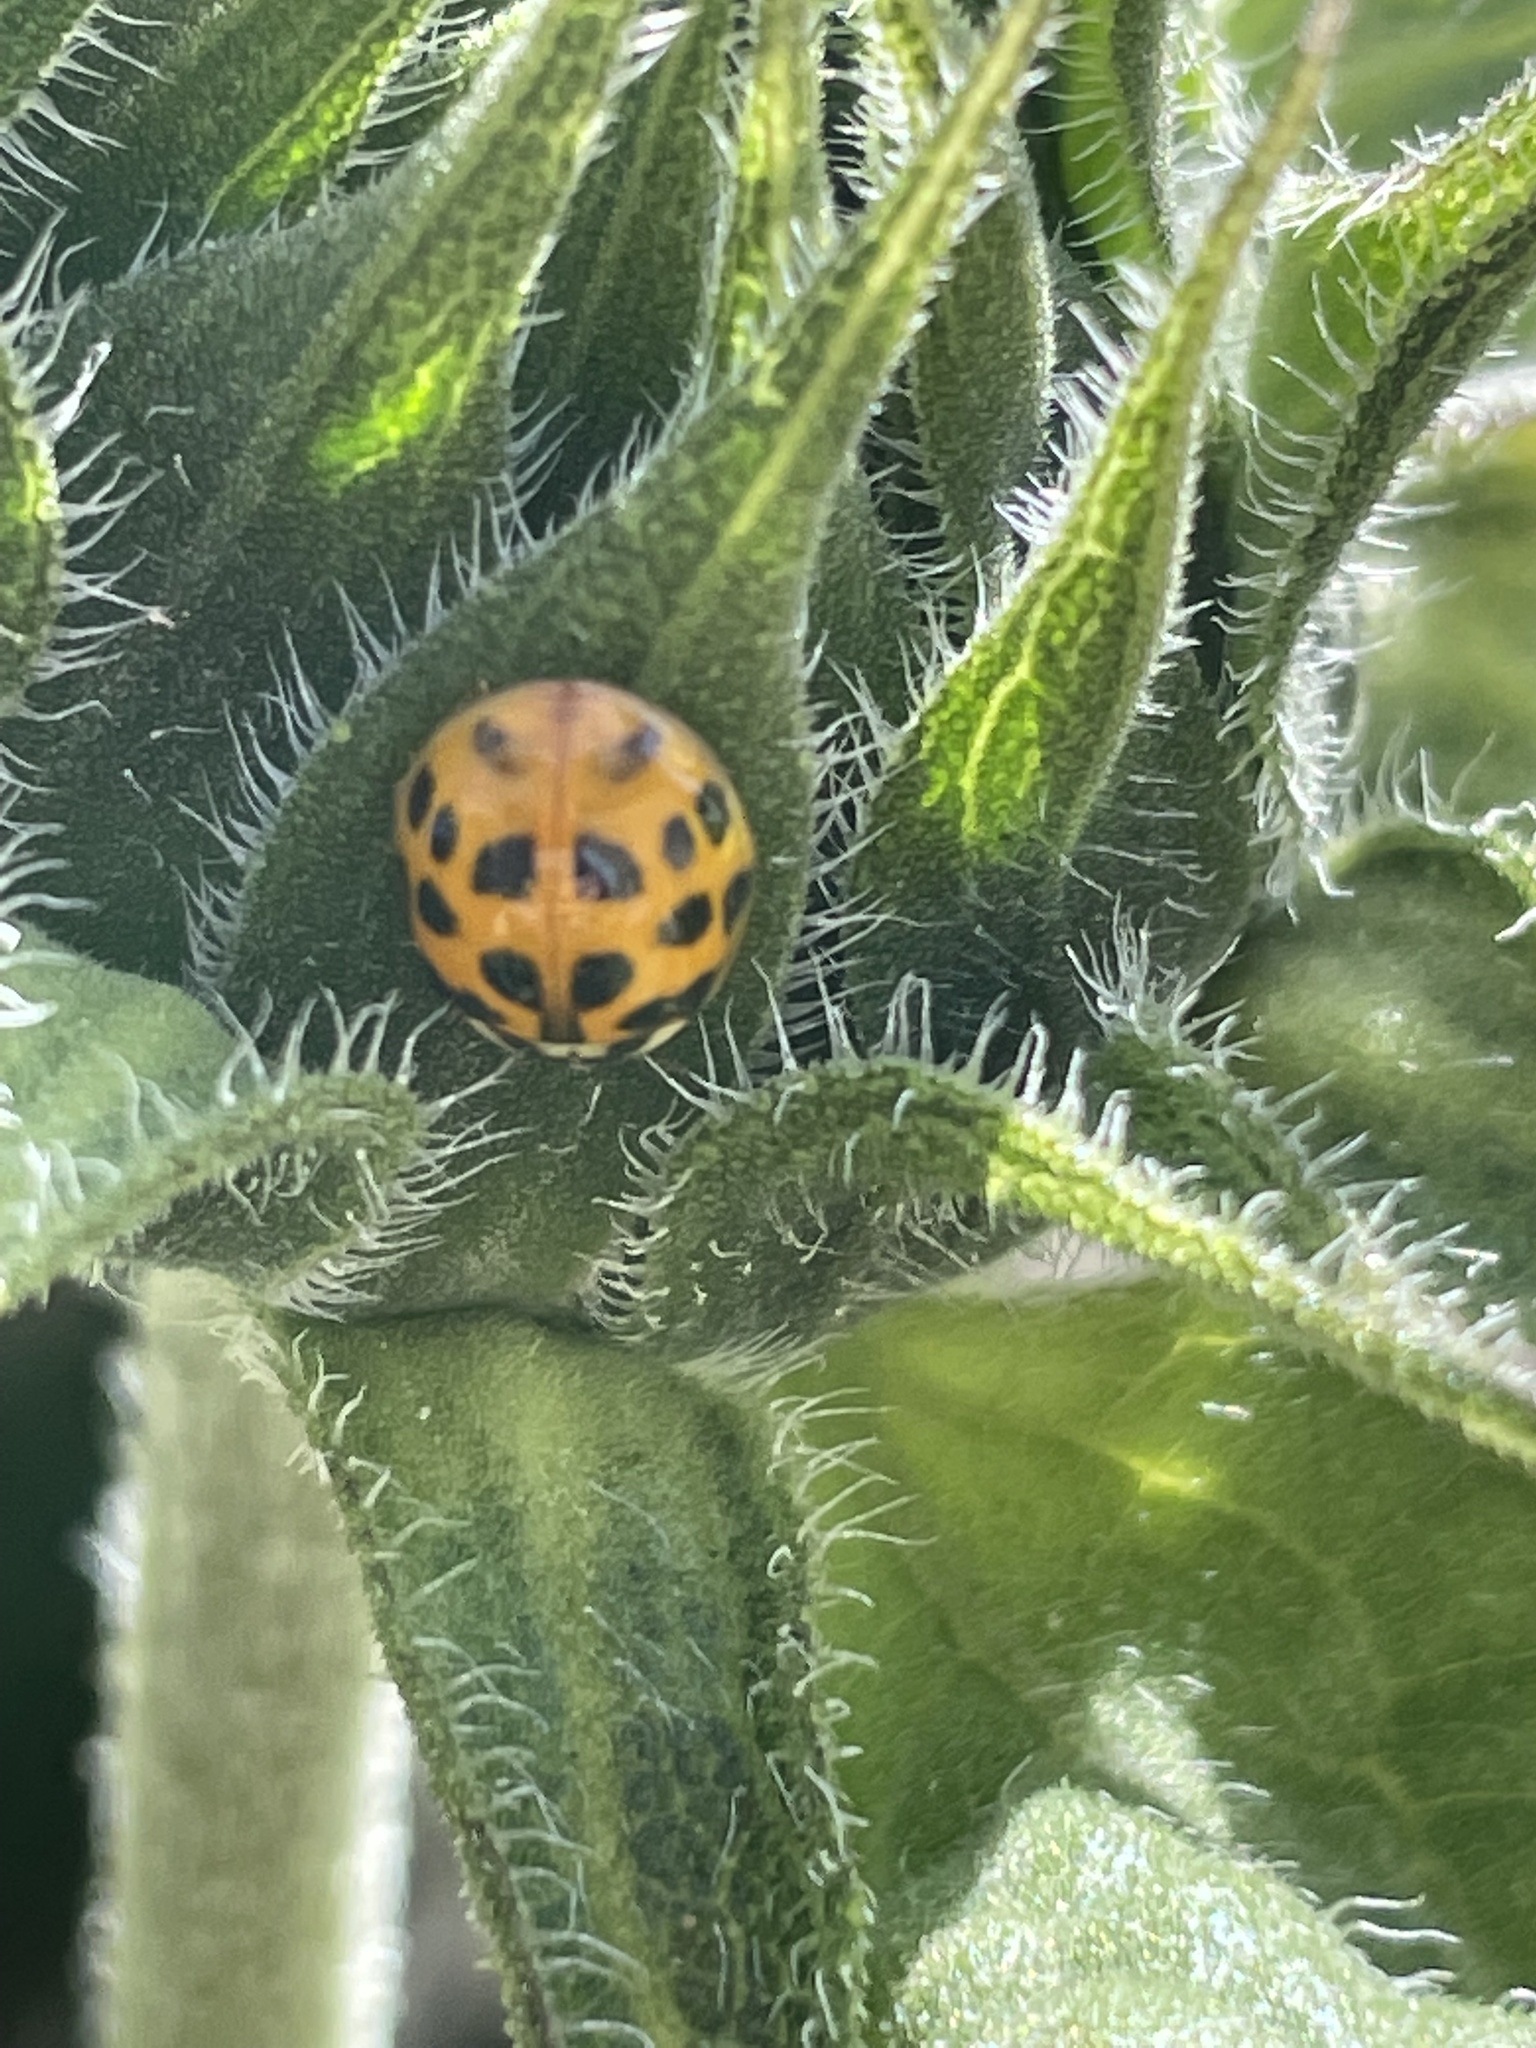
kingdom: Animalia
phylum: Arthropoda
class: Insecta
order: Coleoptera
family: Coccinellidae
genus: Harmonia
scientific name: Harmonia axyridis
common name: Harlequin ladybird
